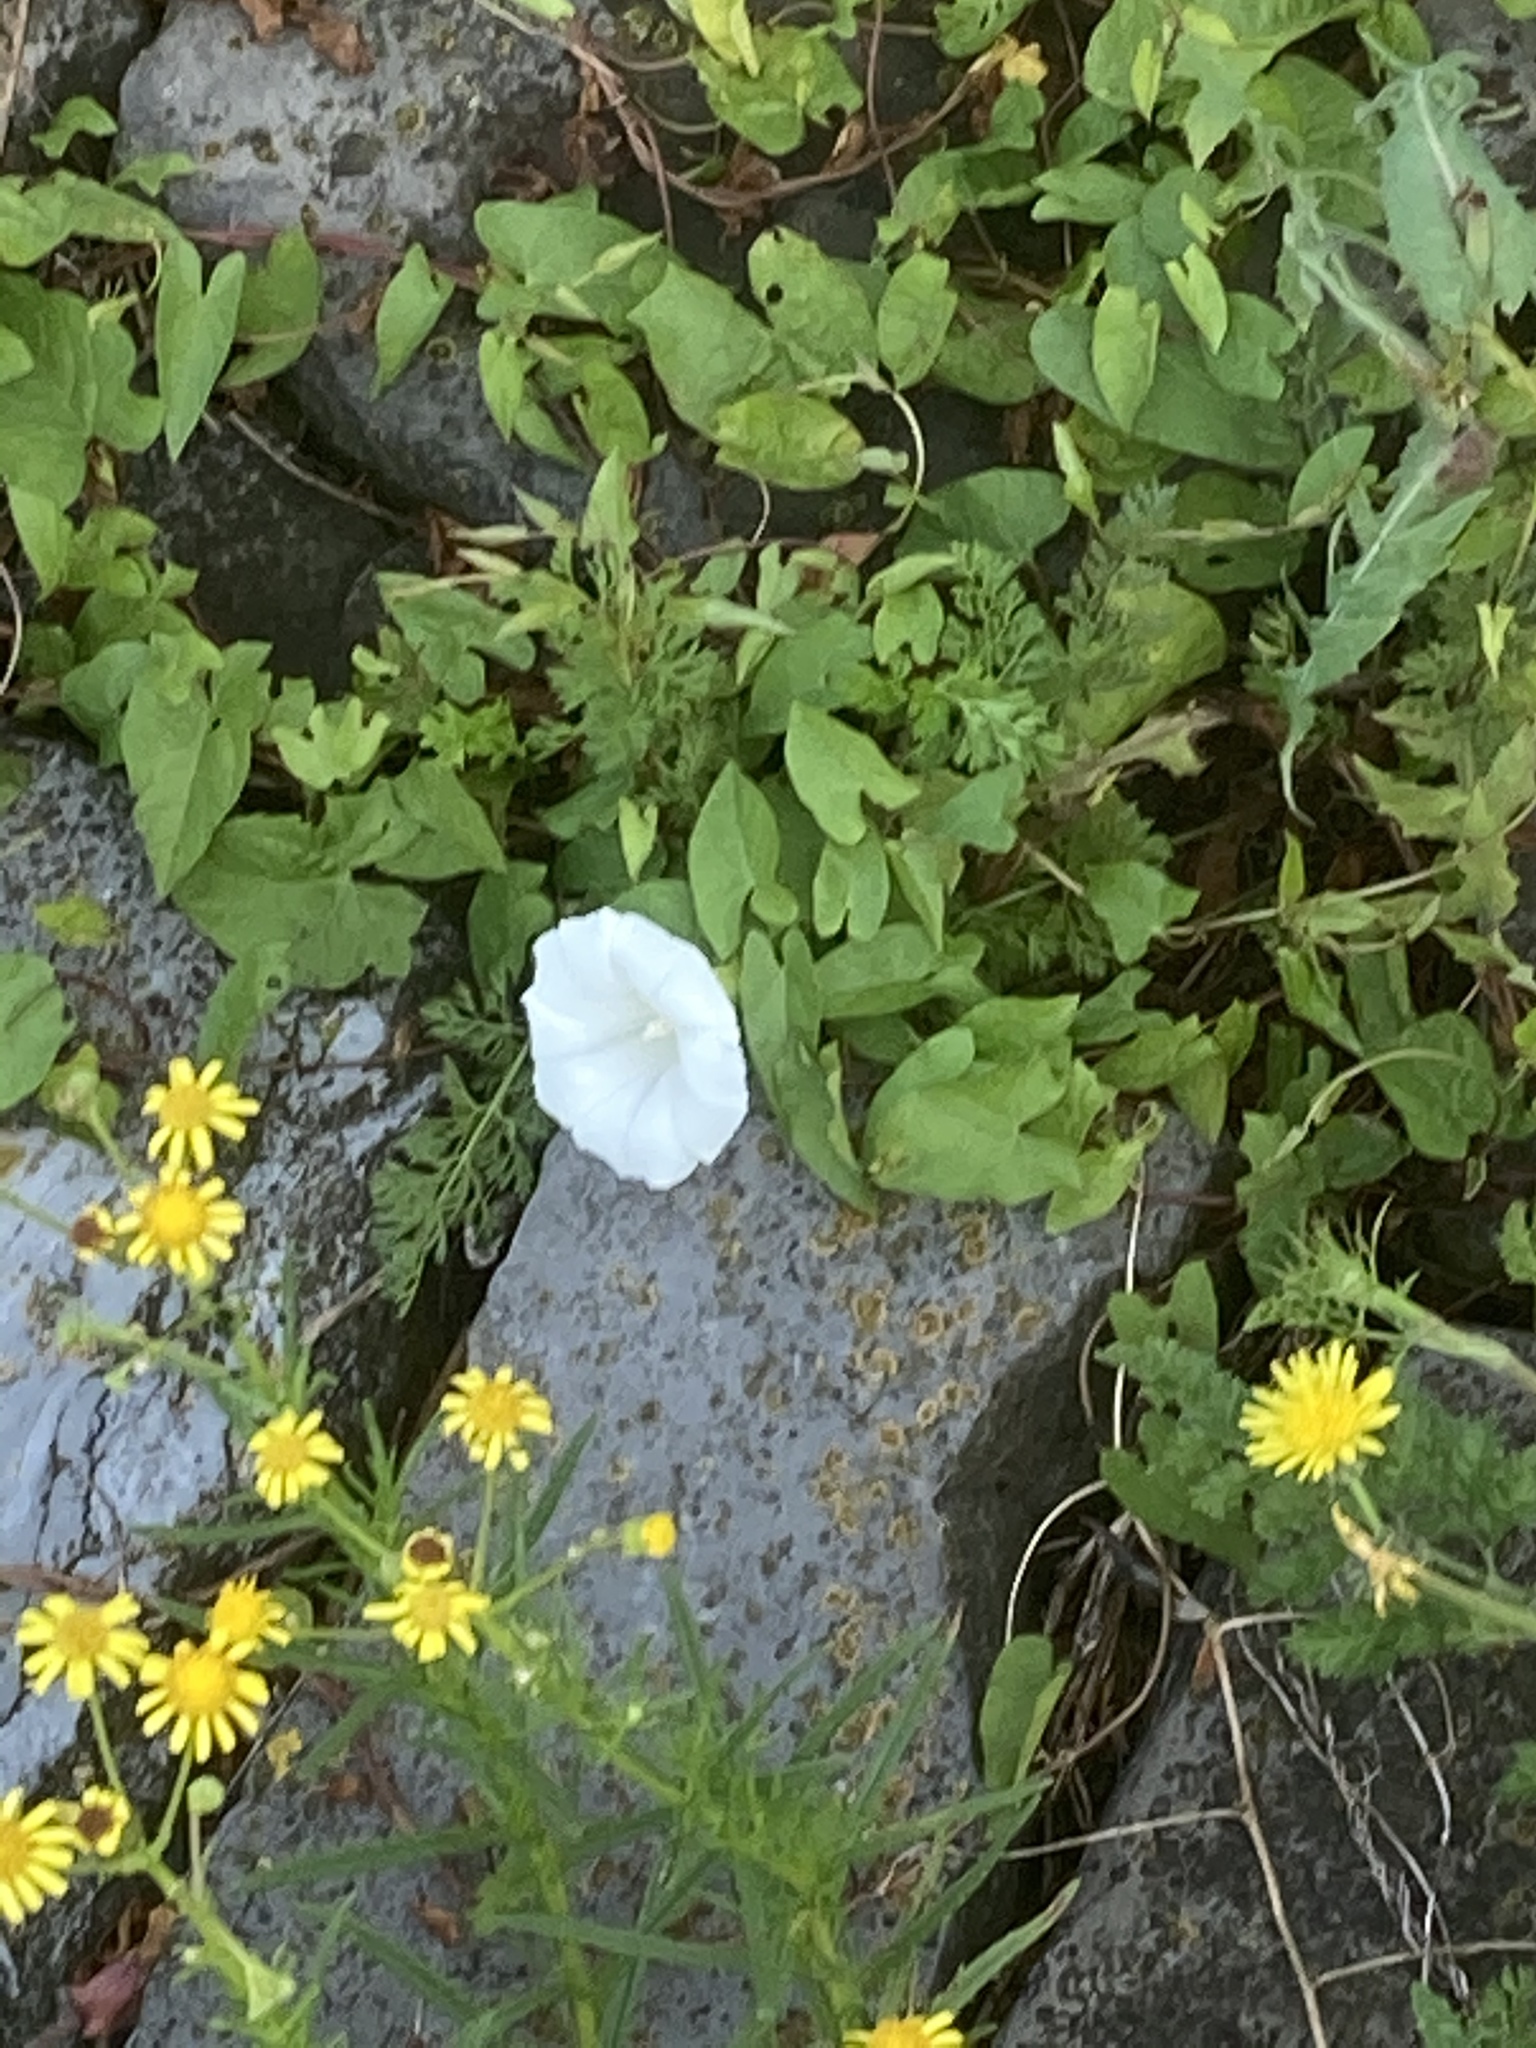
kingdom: Plantae
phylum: Tracheophyta
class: Magnoliopsida
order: Solanales
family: Convolvulaceae
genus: Calystegia
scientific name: Calystegia sepium
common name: Hedge bindweed
